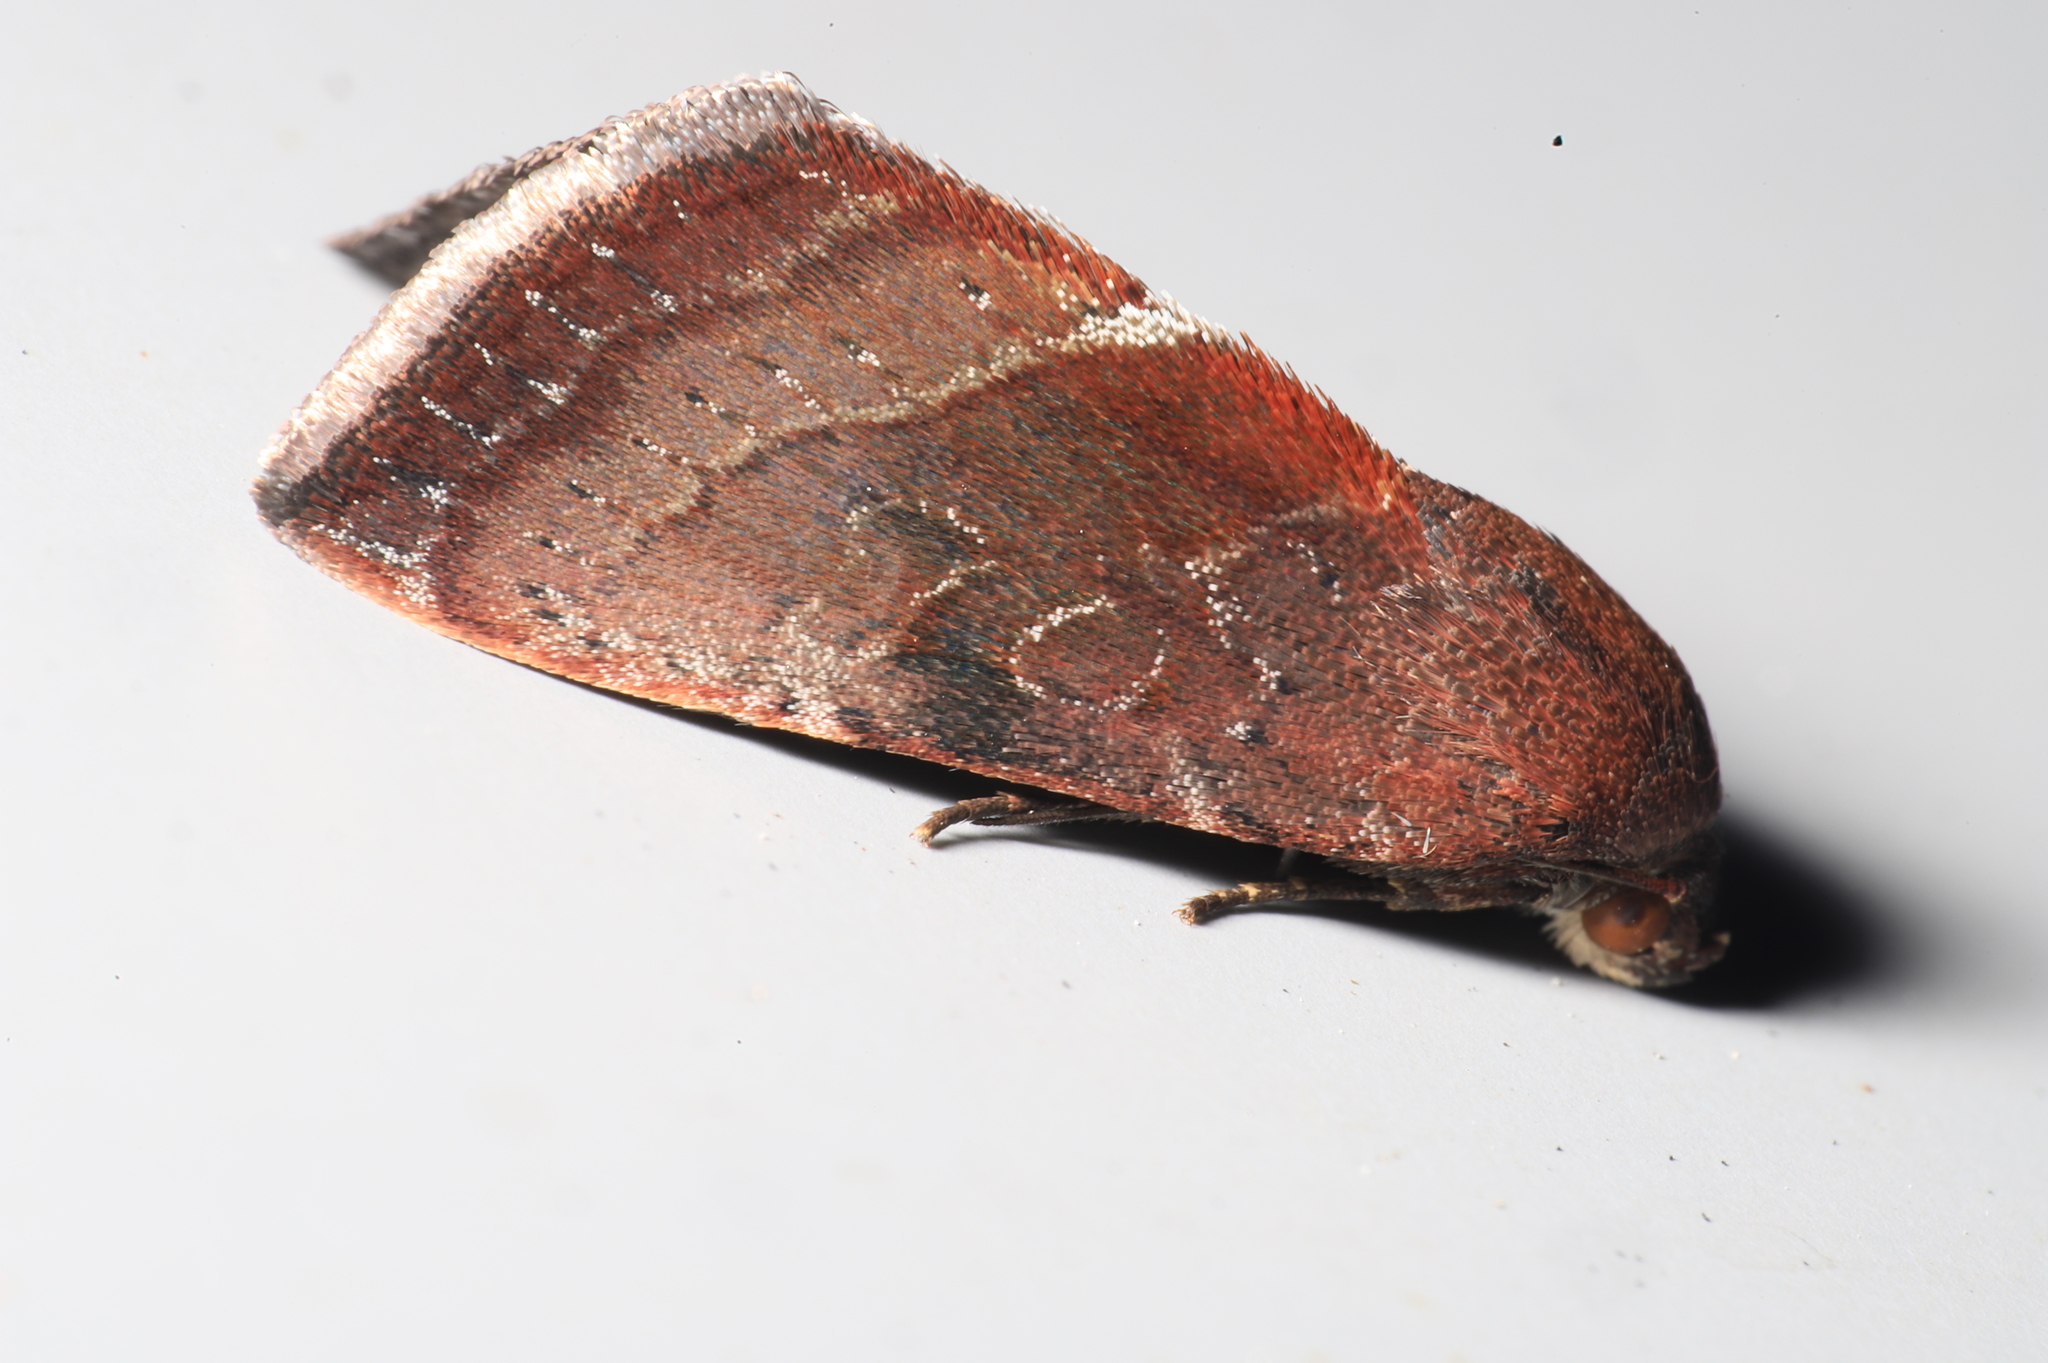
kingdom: Animalia
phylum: Arthropoda
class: Insecta
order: Lepidoptera
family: Noctuidae
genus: Galgula
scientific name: Galgula partita
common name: Wedgeling
